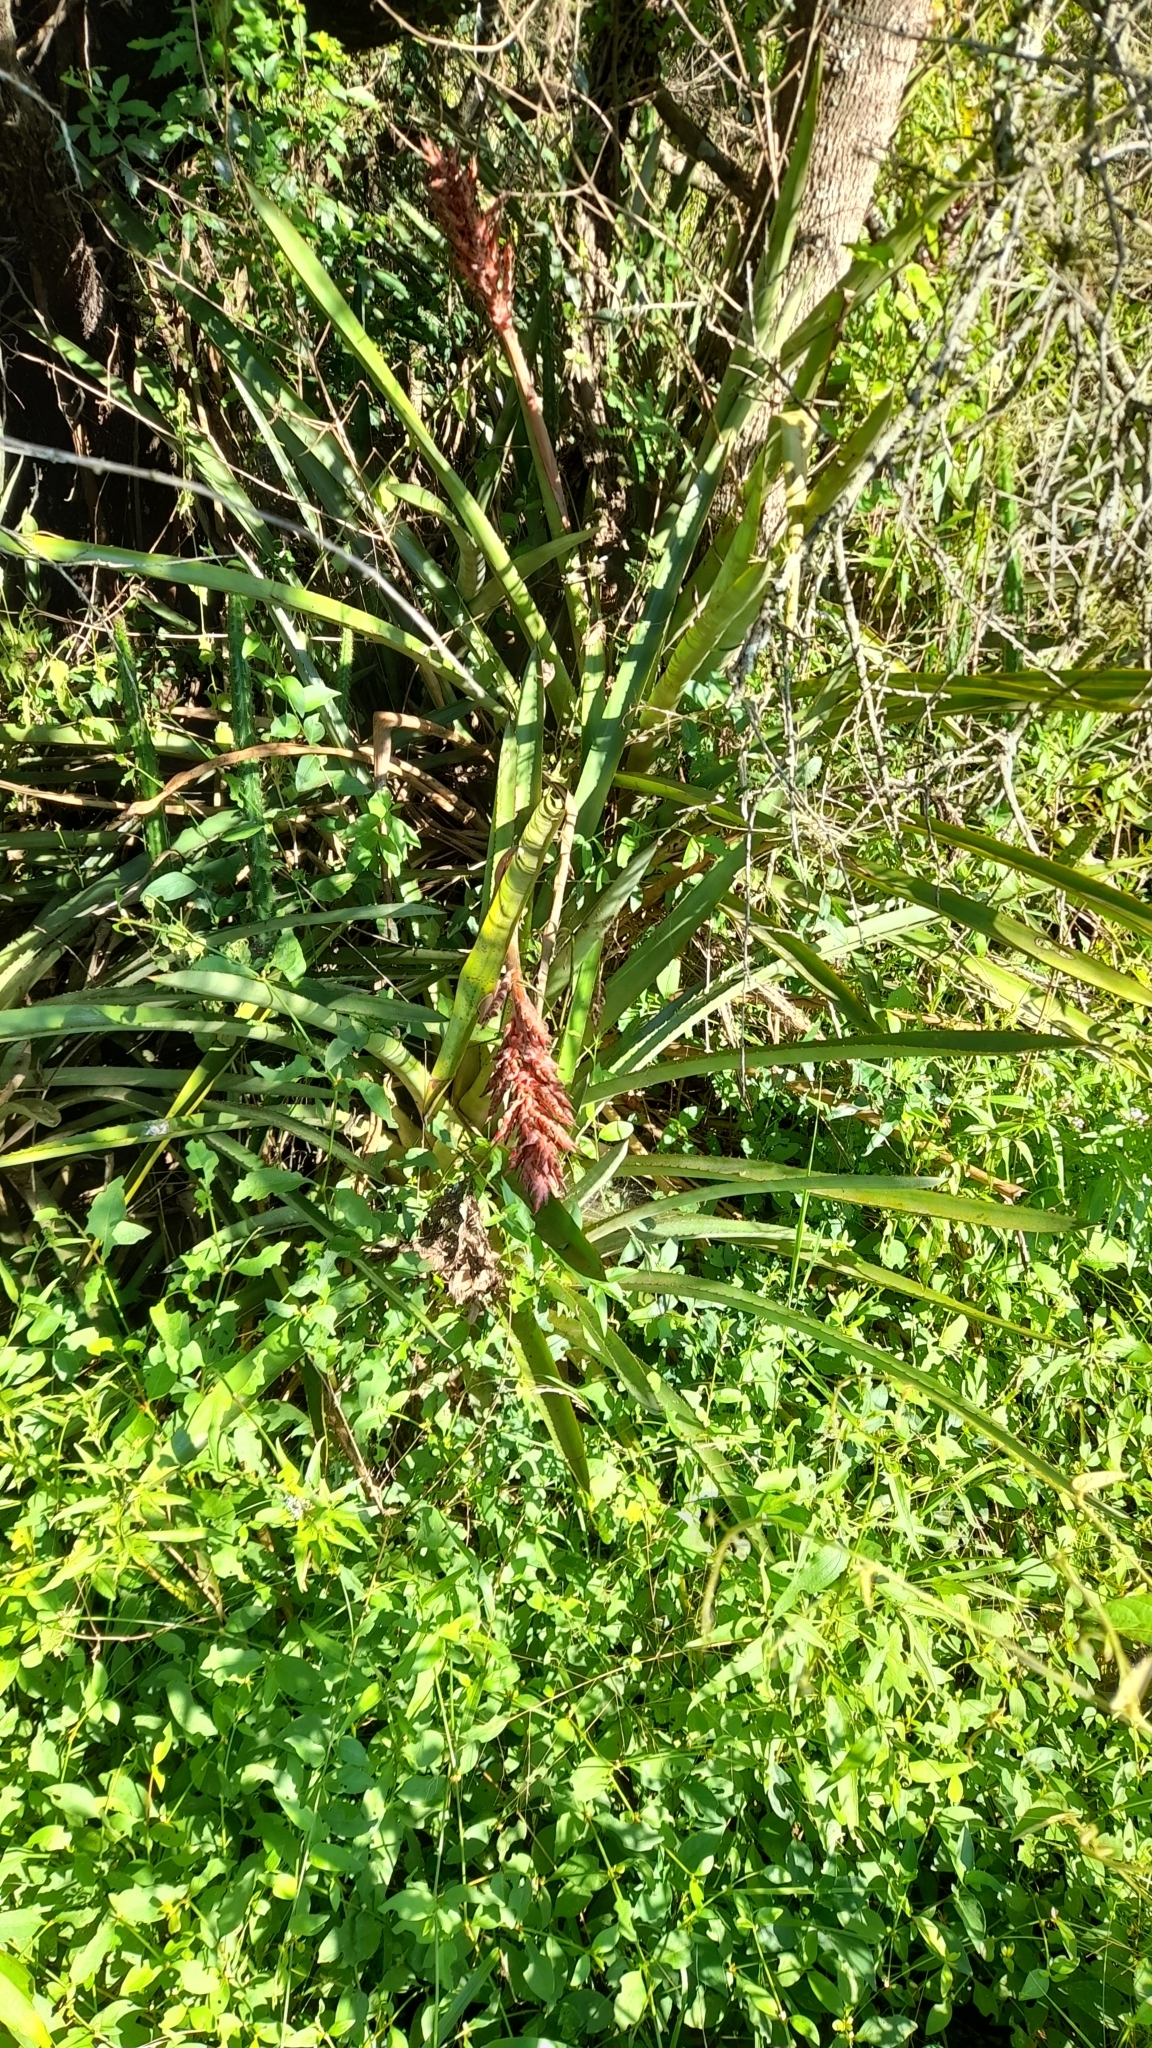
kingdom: Plantae
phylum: Tracheophyta
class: Liliopsida
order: Poales
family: Bromeliaceae
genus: Aechmea
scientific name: Aechmea distichantha
